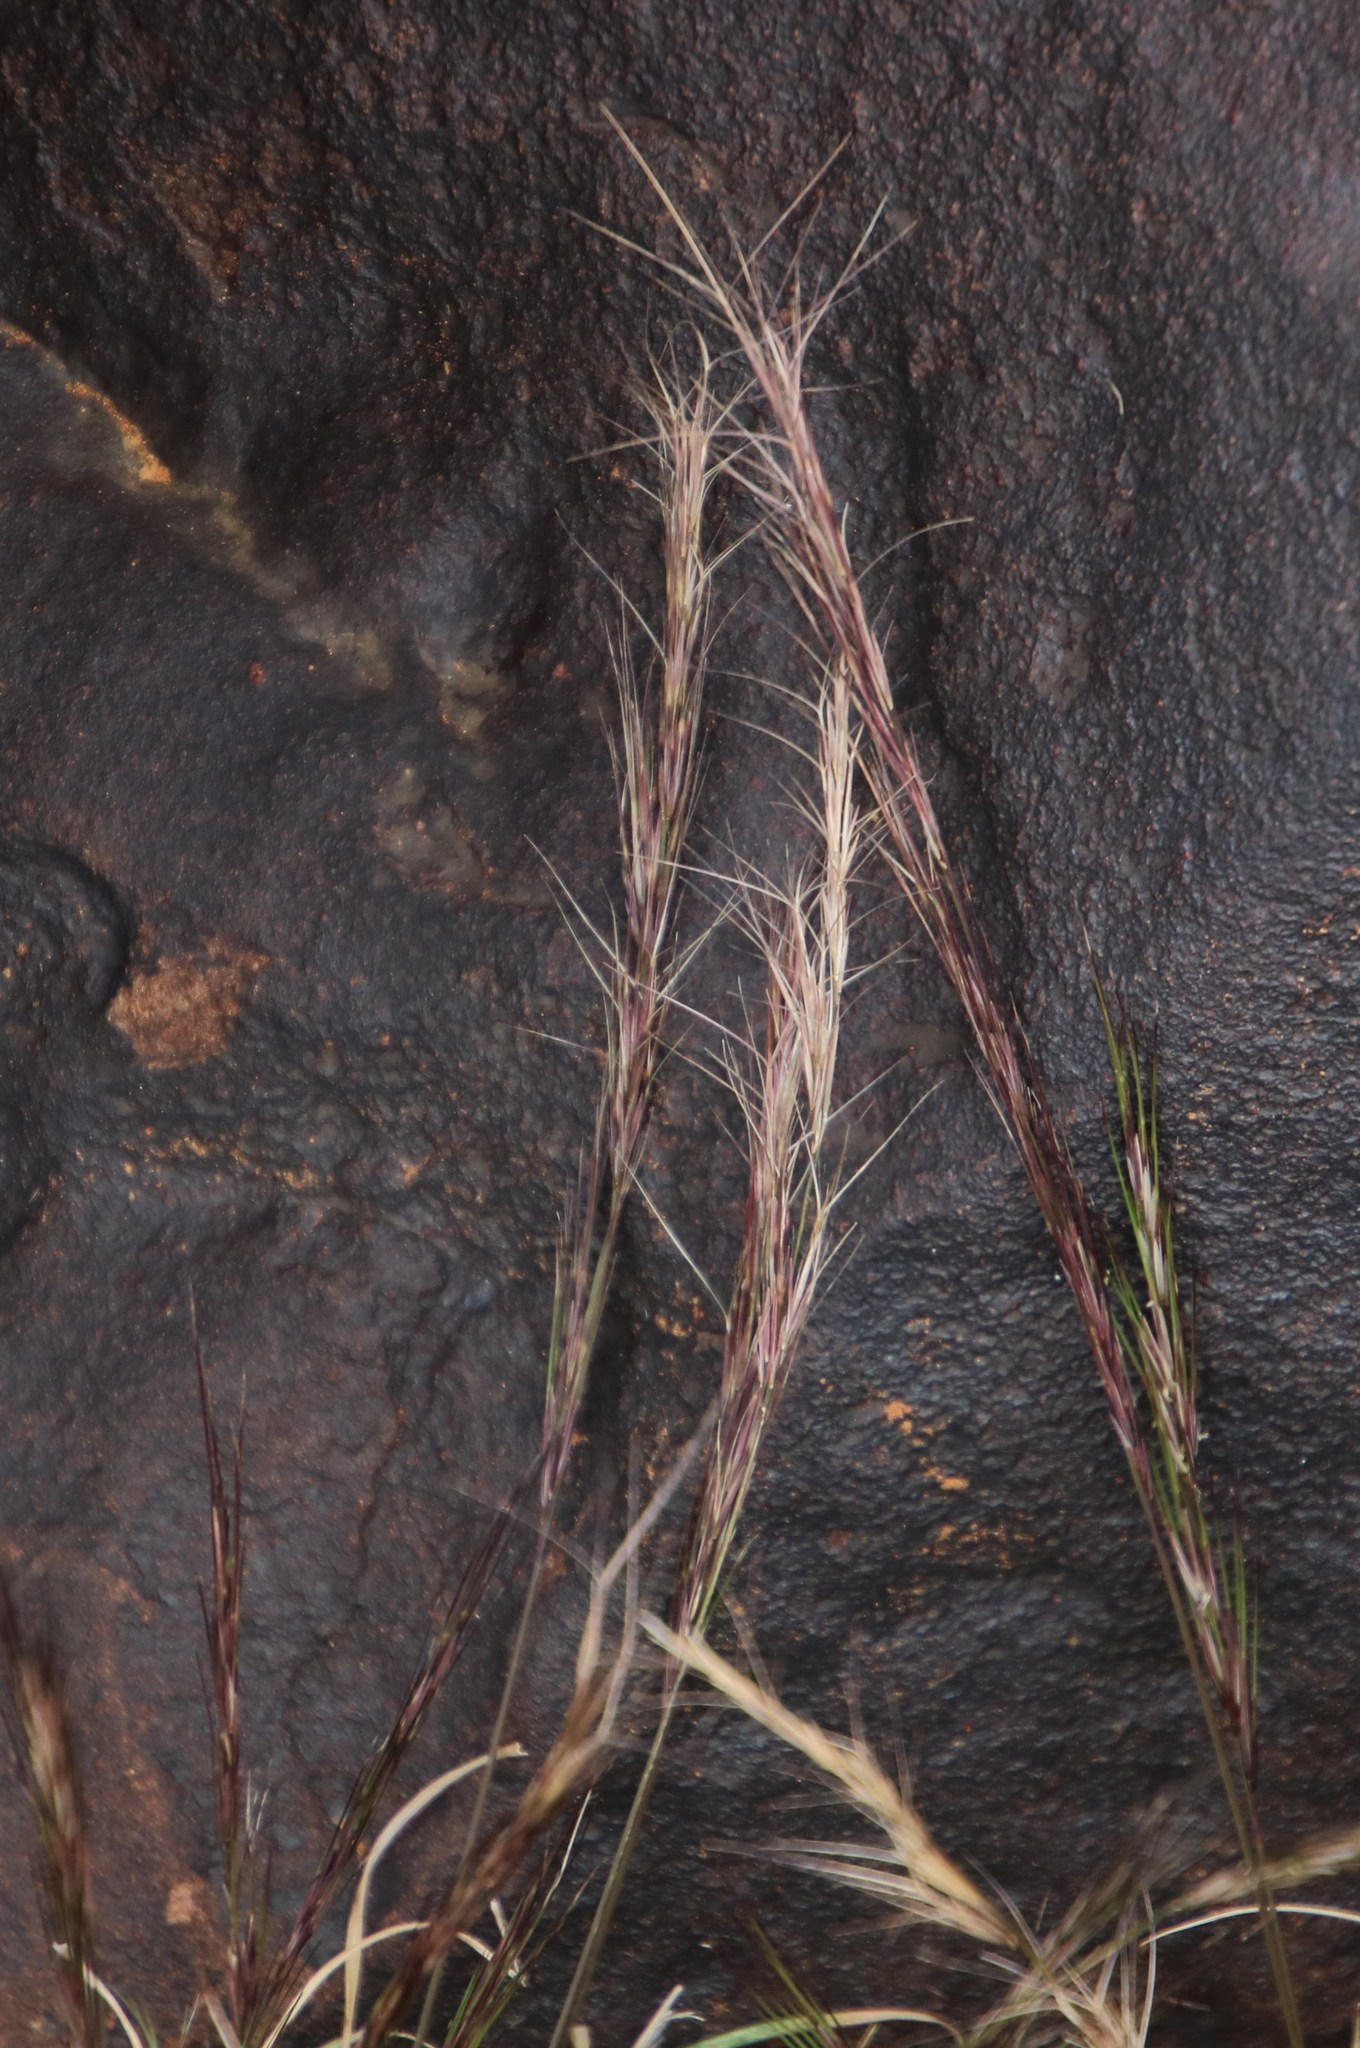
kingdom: Plantae
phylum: Tracheophyta
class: Liliopsida
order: Poales
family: Poaceae
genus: Aristida
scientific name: Aristida adscensionis
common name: Sixweeks threeawn
